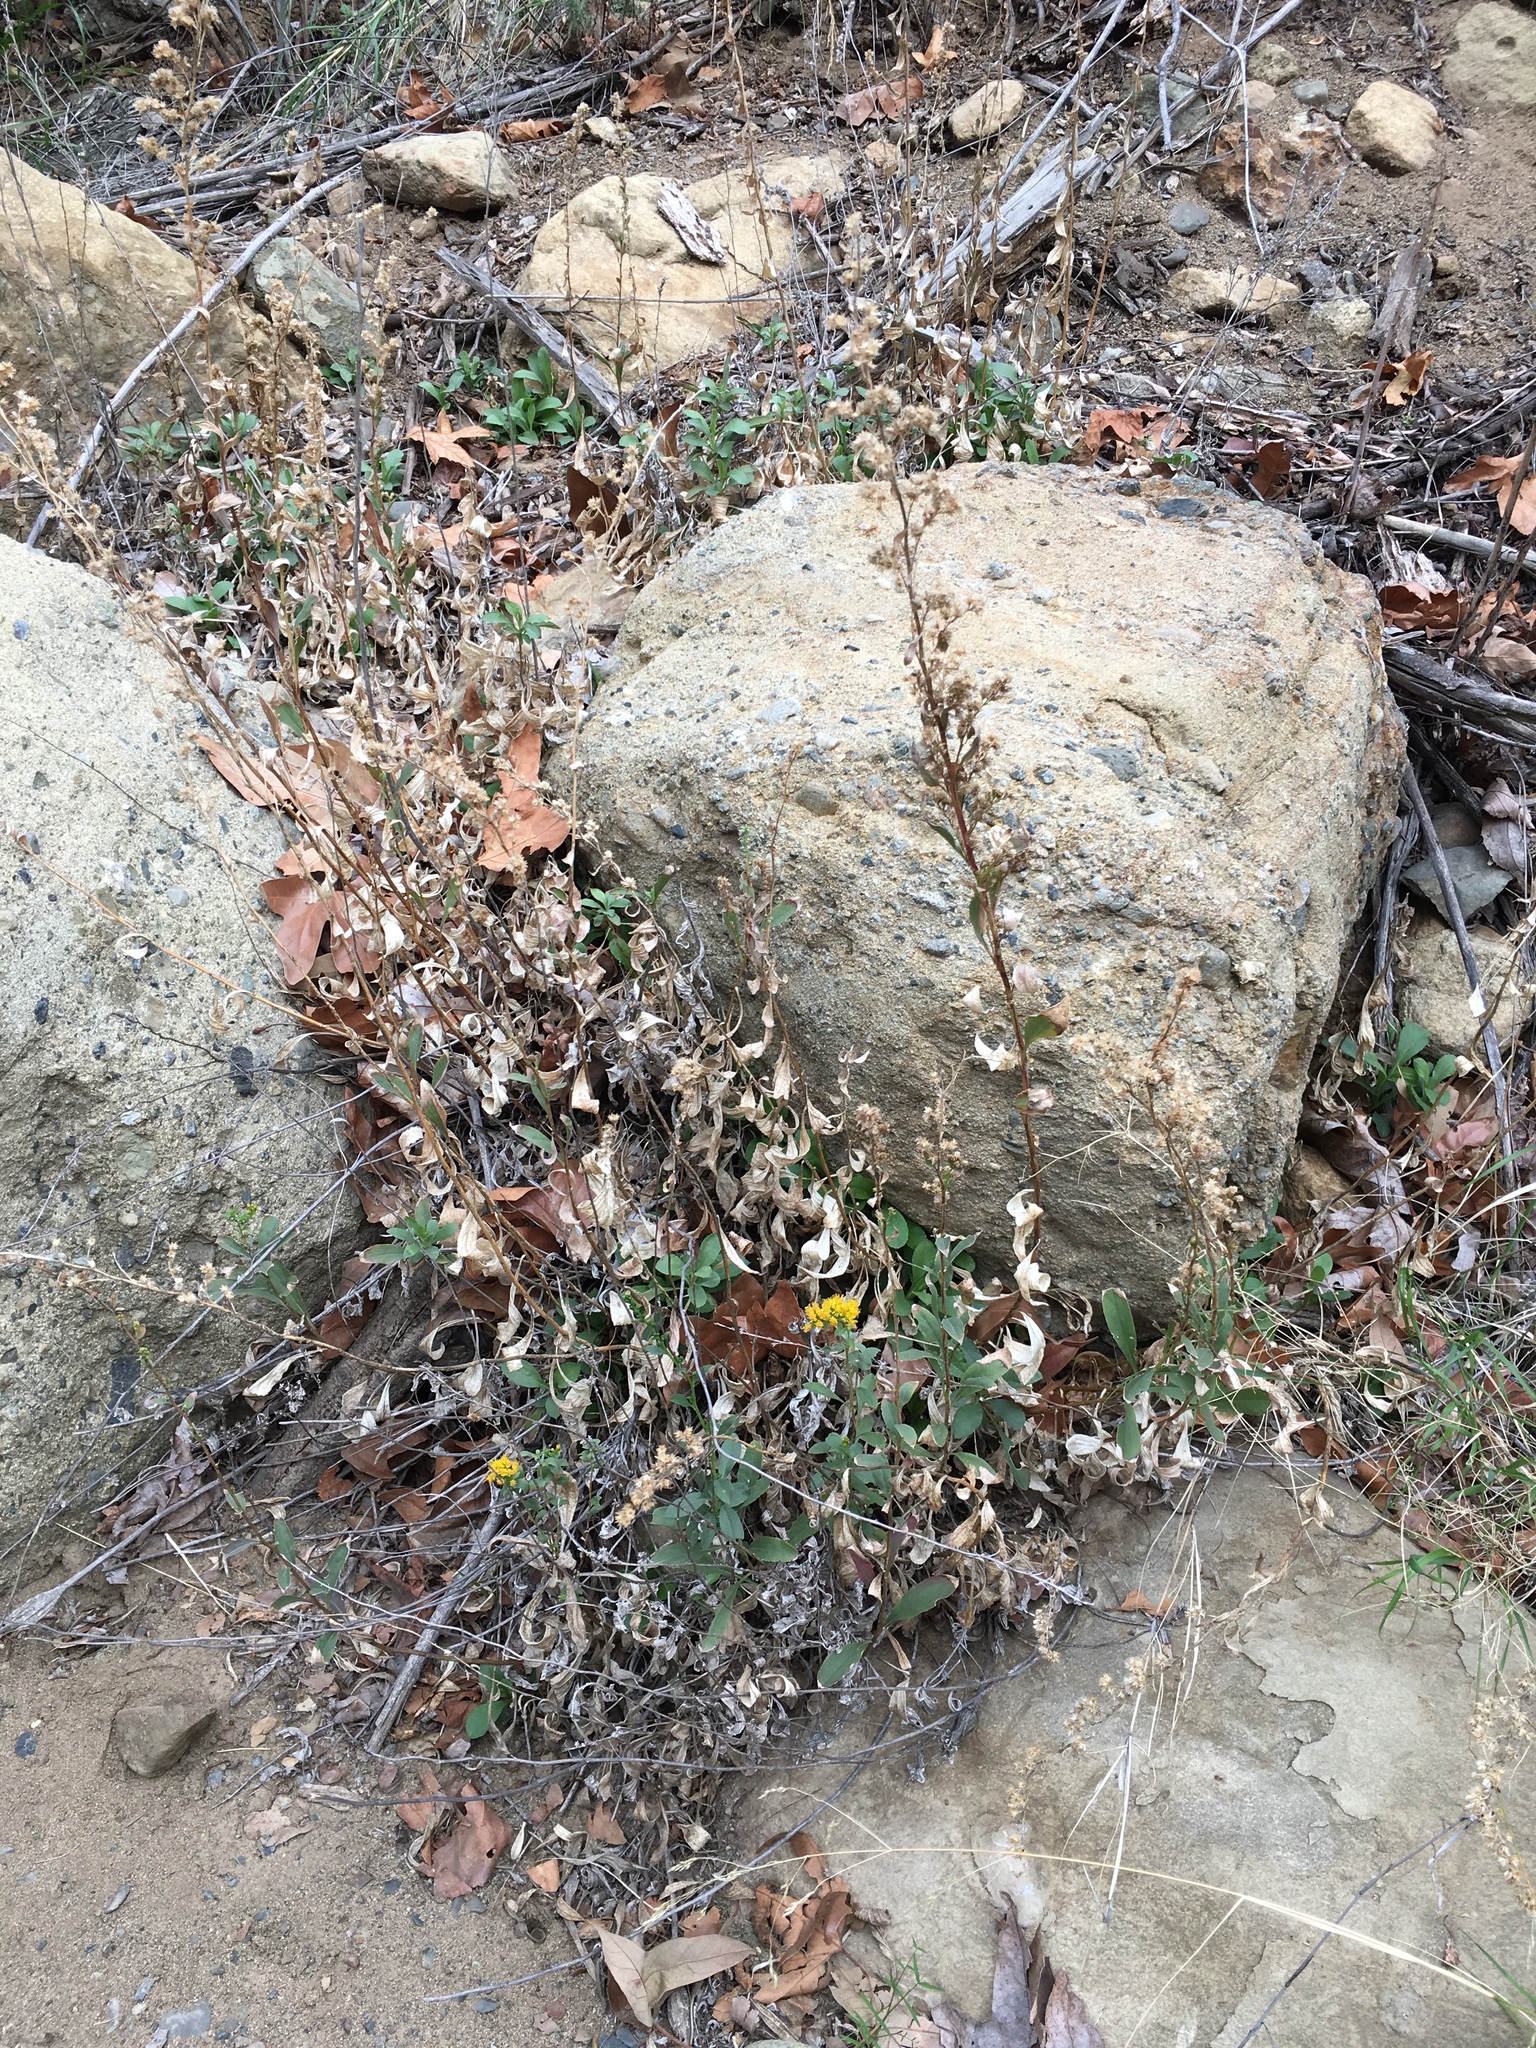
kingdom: Plantae
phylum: Tracheophyta
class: Magnoliopsida
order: Asterales
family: Asteraceae
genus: Solidago
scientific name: Solidago velutina
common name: Three-nerve goldenrod
